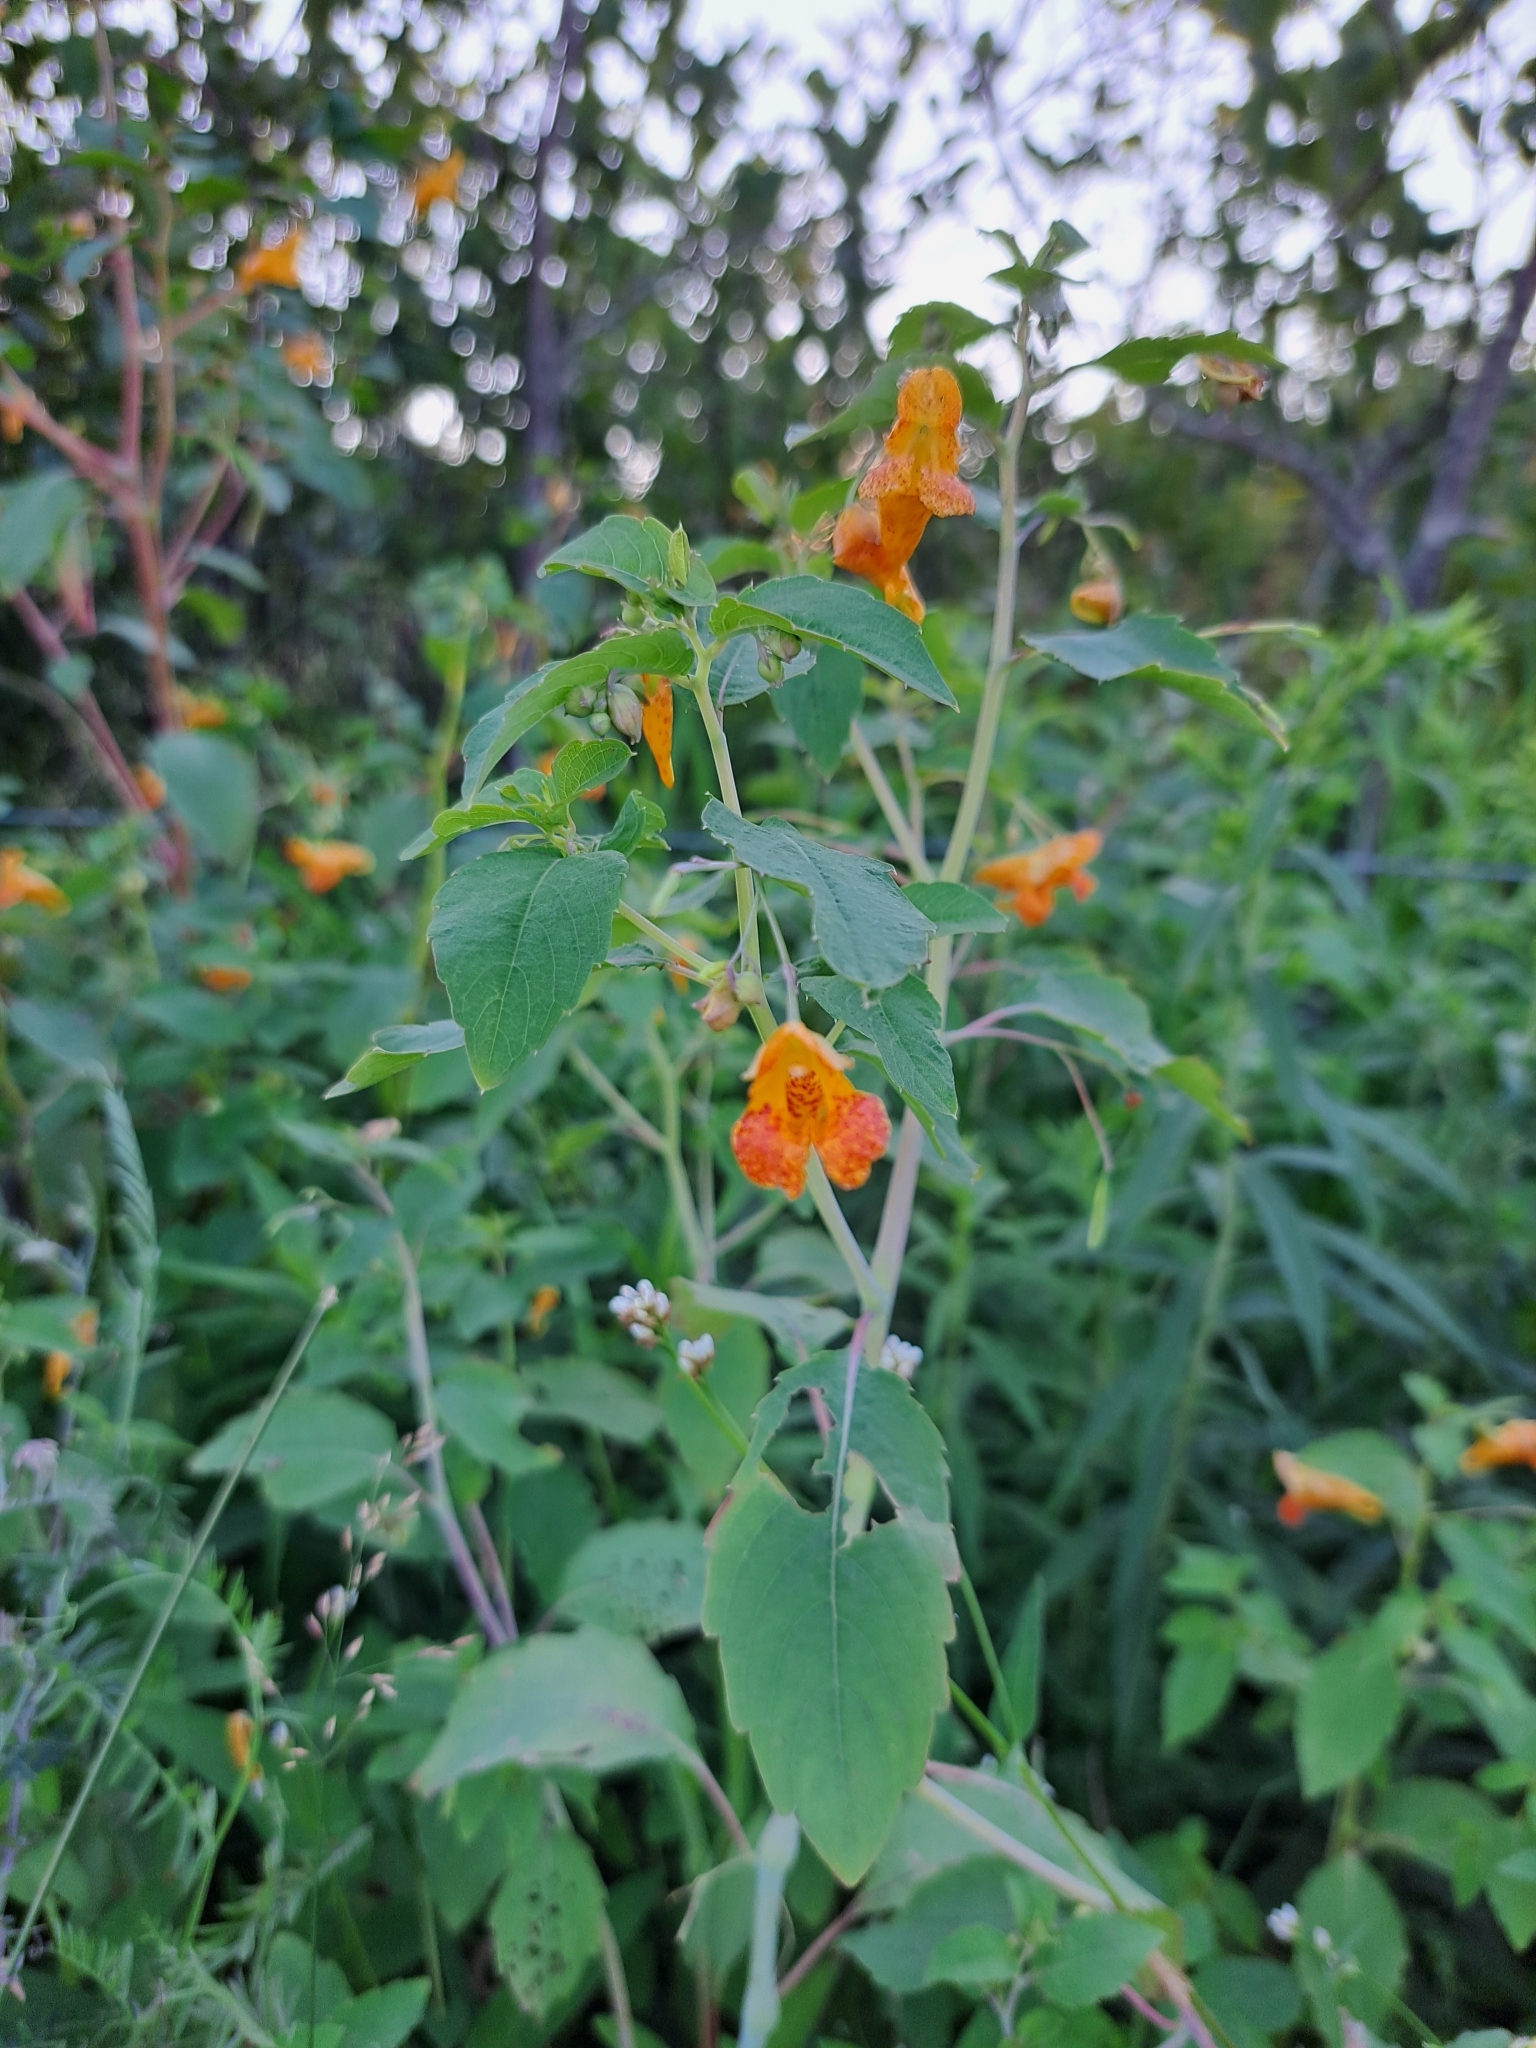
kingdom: Plantae
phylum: Tracheophyta
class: Magnoliopsida
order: Ericales
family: Balsaminaceae
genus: Impatiens
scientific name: Impatiens capensis
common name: Orange balsam
